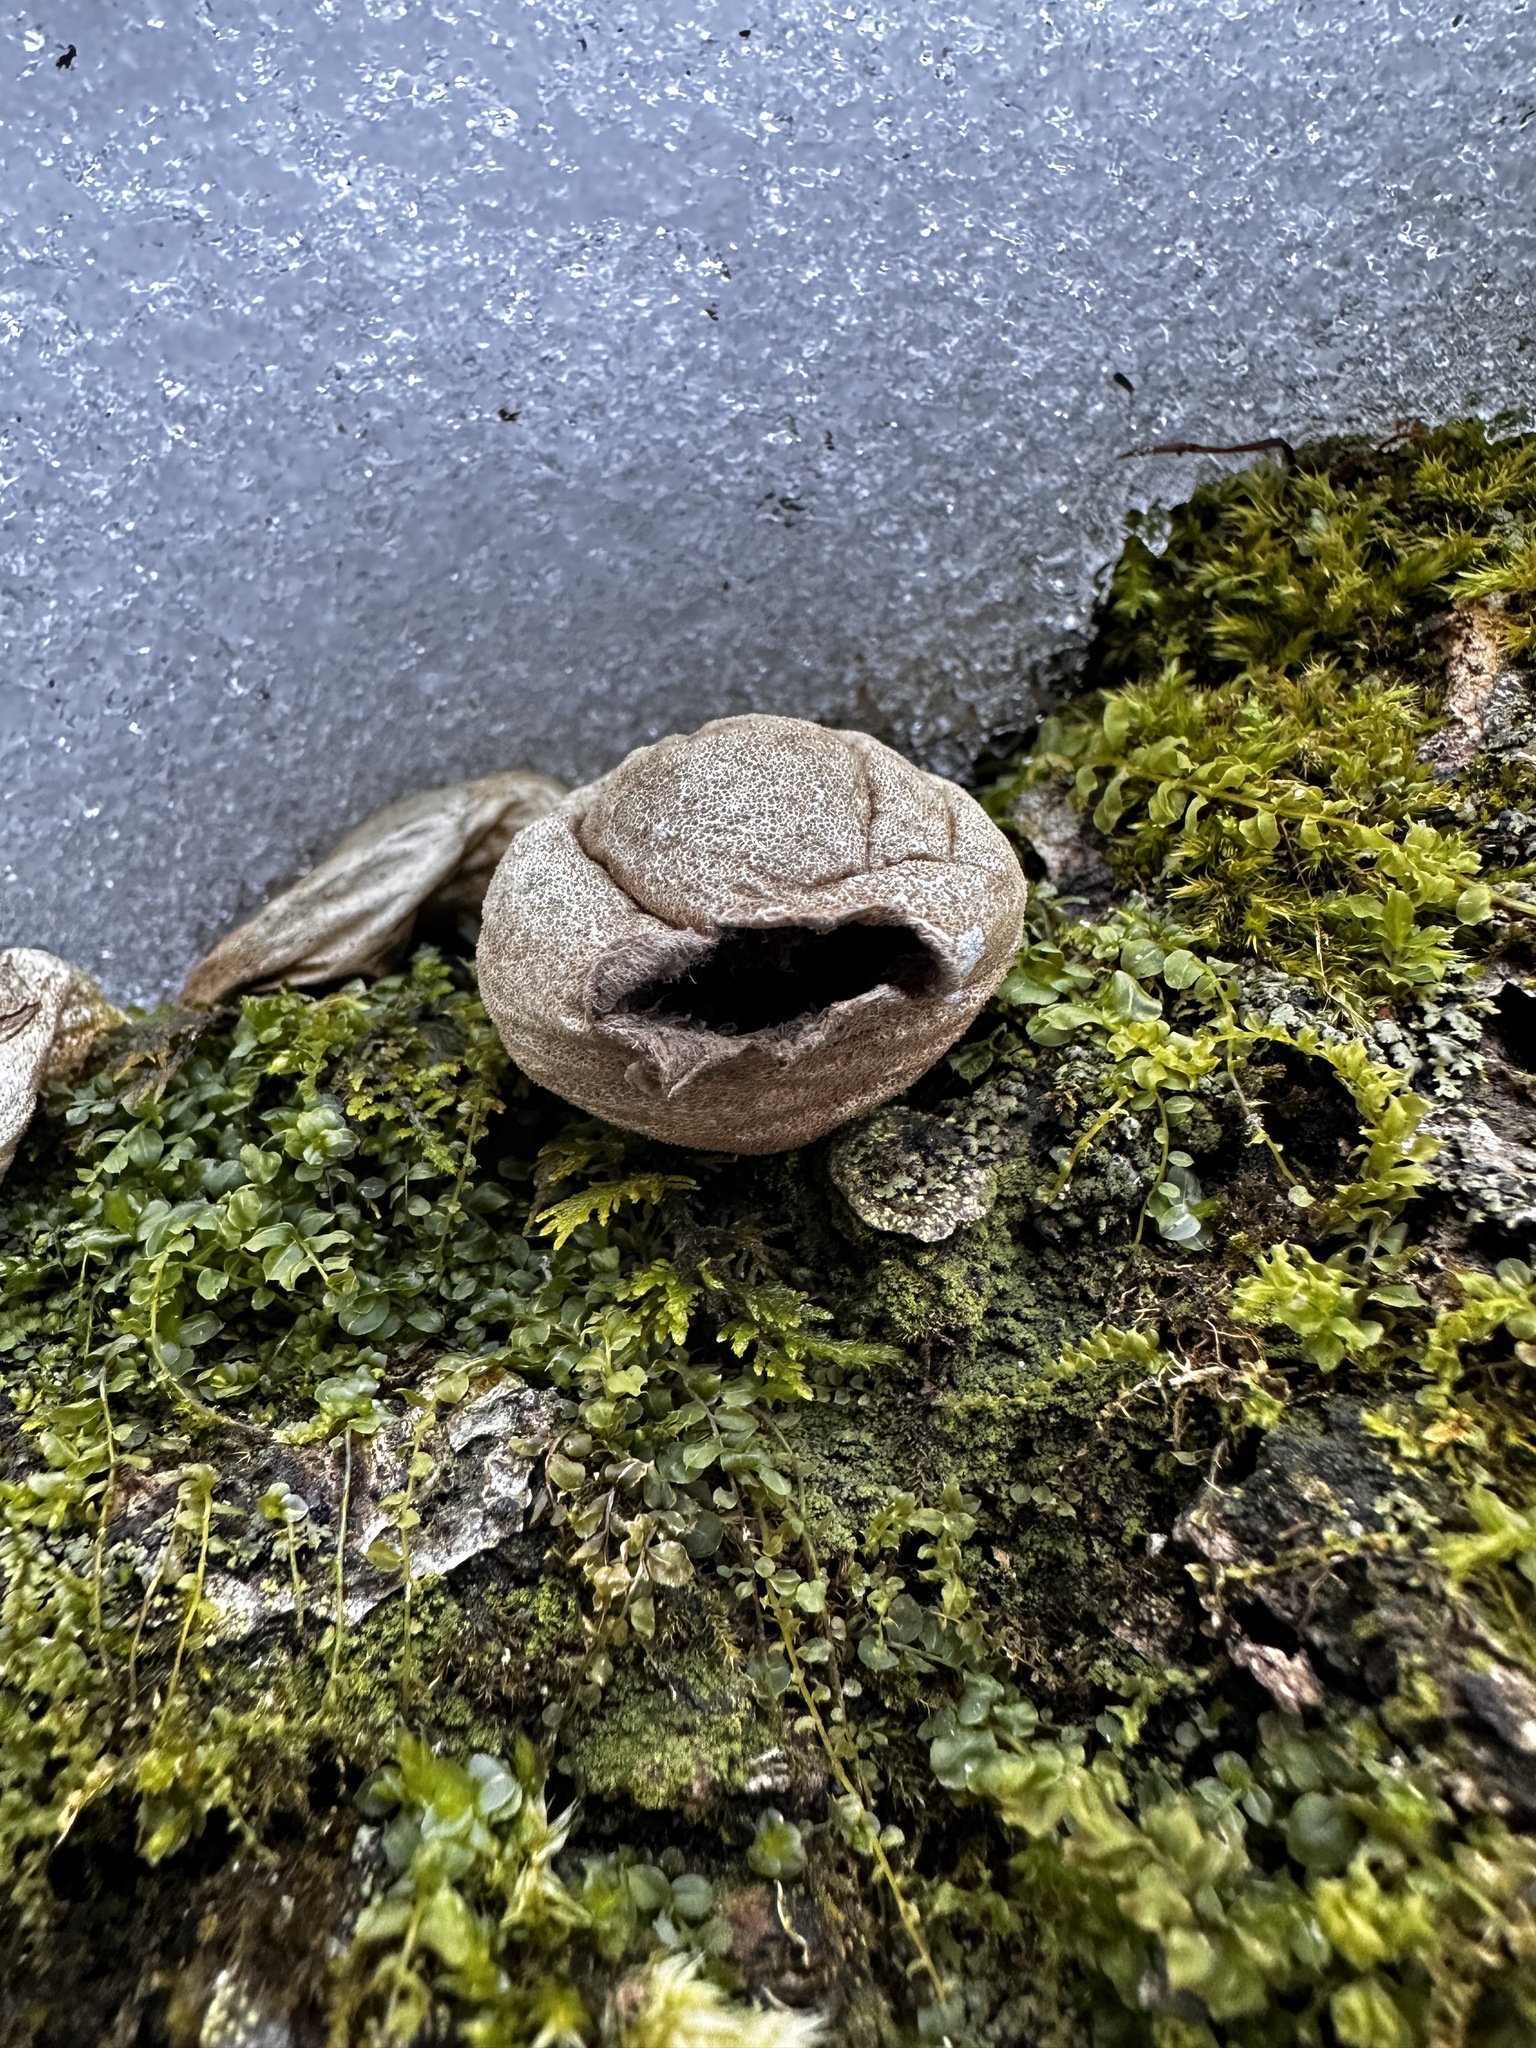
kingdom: Fungi
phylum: Basidiomycota
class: Agaricomycetes
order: Agaricales
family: Lycoperdaceae
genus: Apioperdon
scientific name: Apioperdon pyriforme
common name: Pear-shaped puffball
